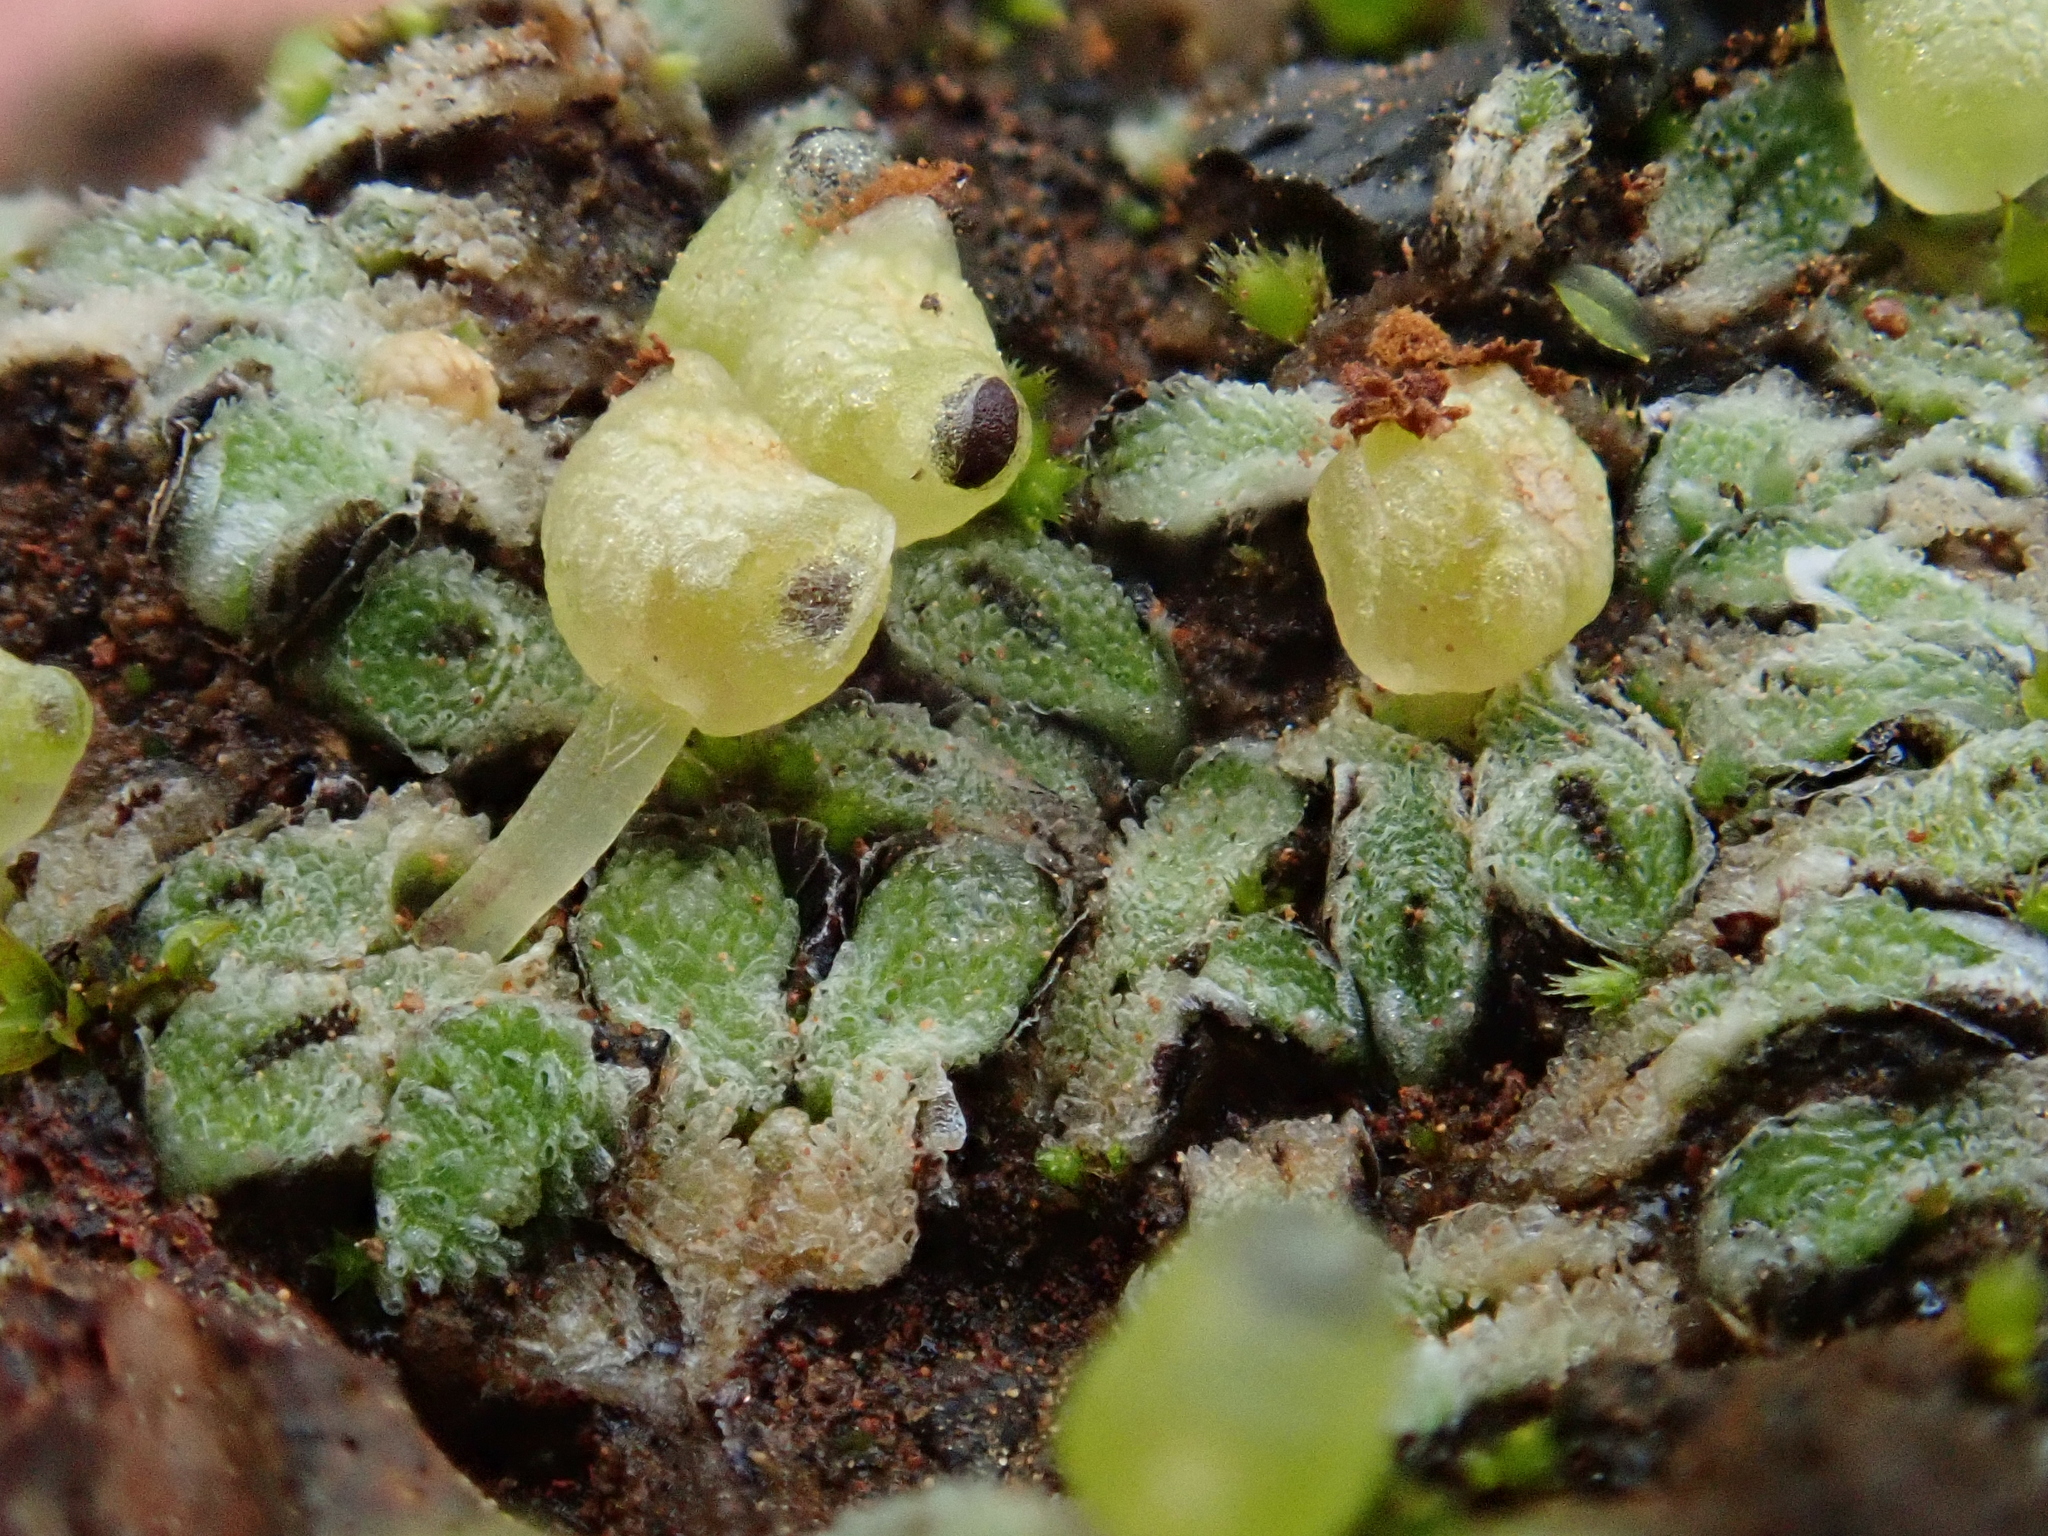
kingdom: Plantae
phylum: Marchantiophyta
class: Marchantiopsida
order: Marchantiales
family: Corsiniaceae
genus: Exormotheca
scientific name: Exormotheca pustulosa
